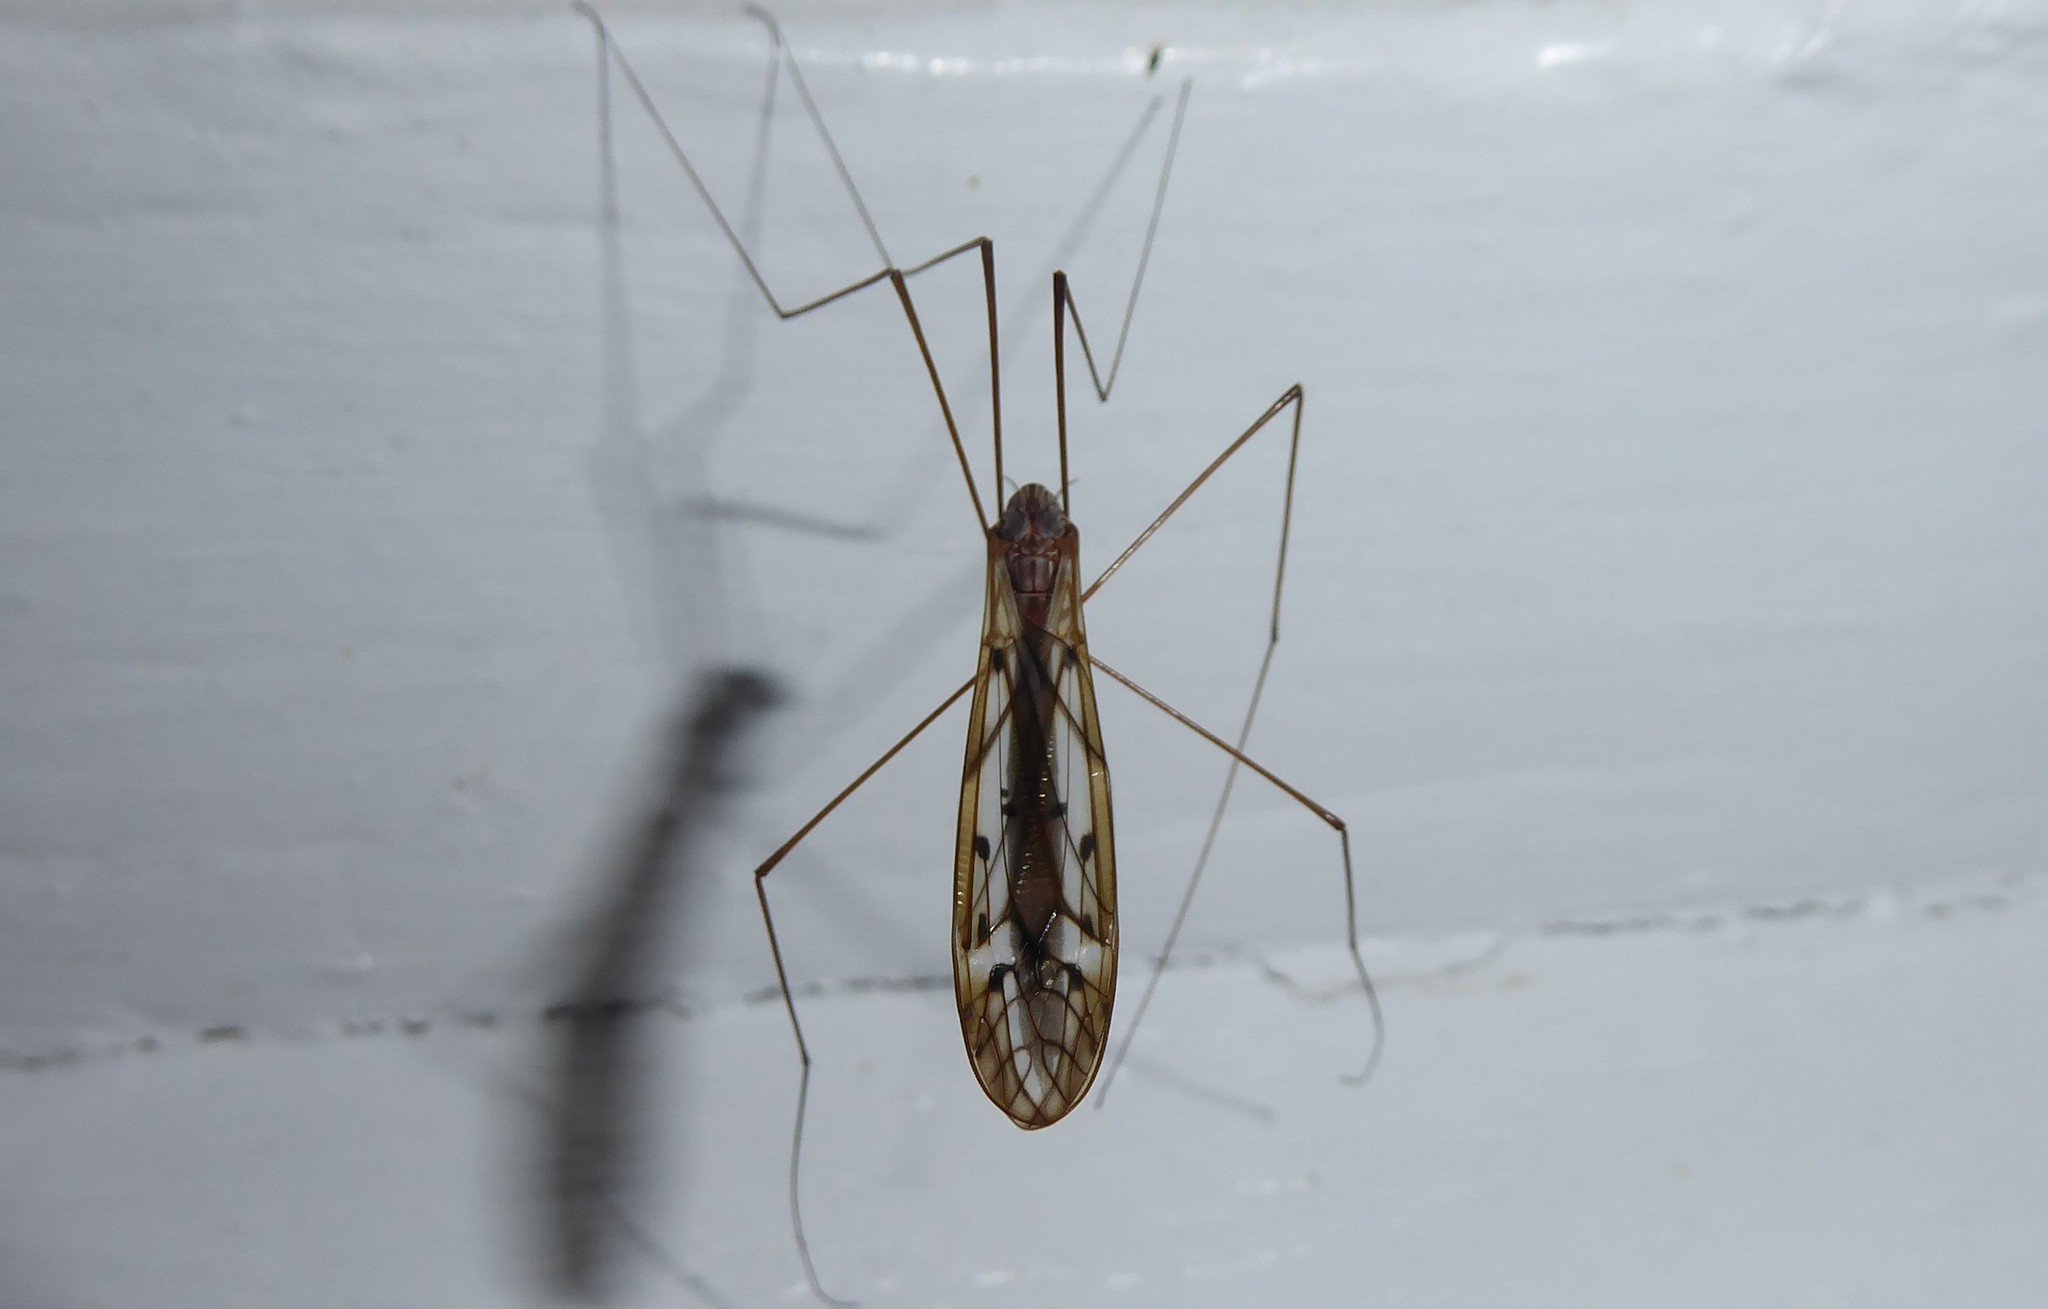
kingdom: Animalia
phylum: Arthropoda
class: Insecta
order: Diptera
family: Tipulidae
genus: Zelandotipula
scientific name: Zelandotipula novarae
